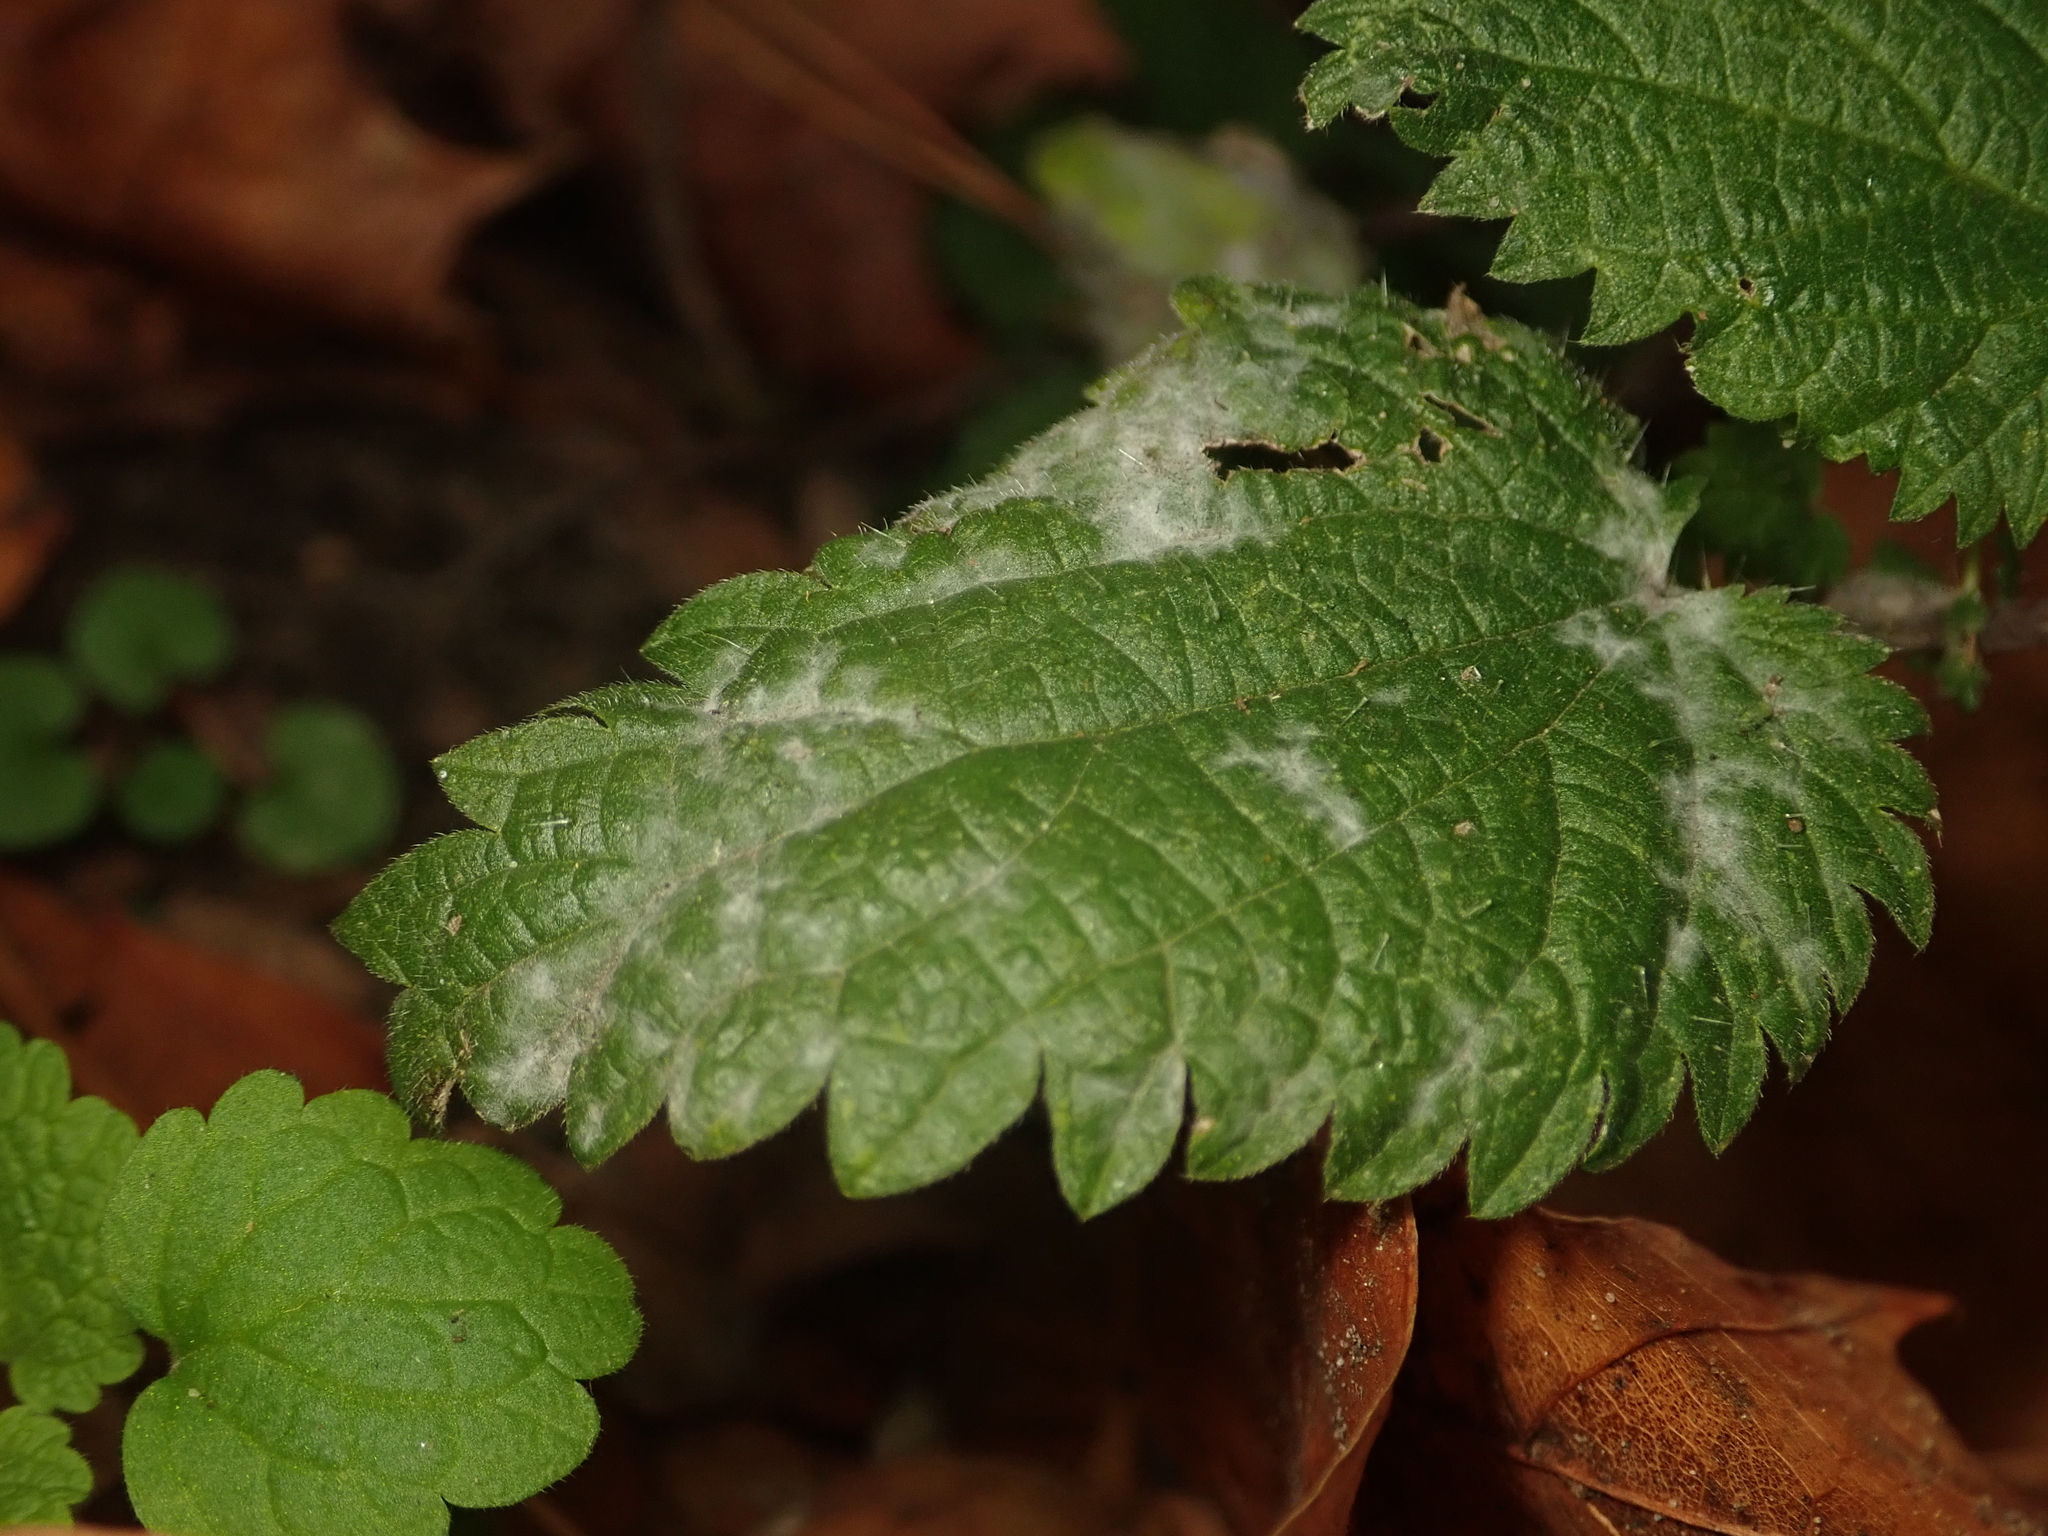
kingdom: Fungi
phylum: Ascomycota
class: Leotiomycetes
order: Helotiales
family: Erysiphaceae
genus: Erysiphe
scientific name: Erysiphe urticae
